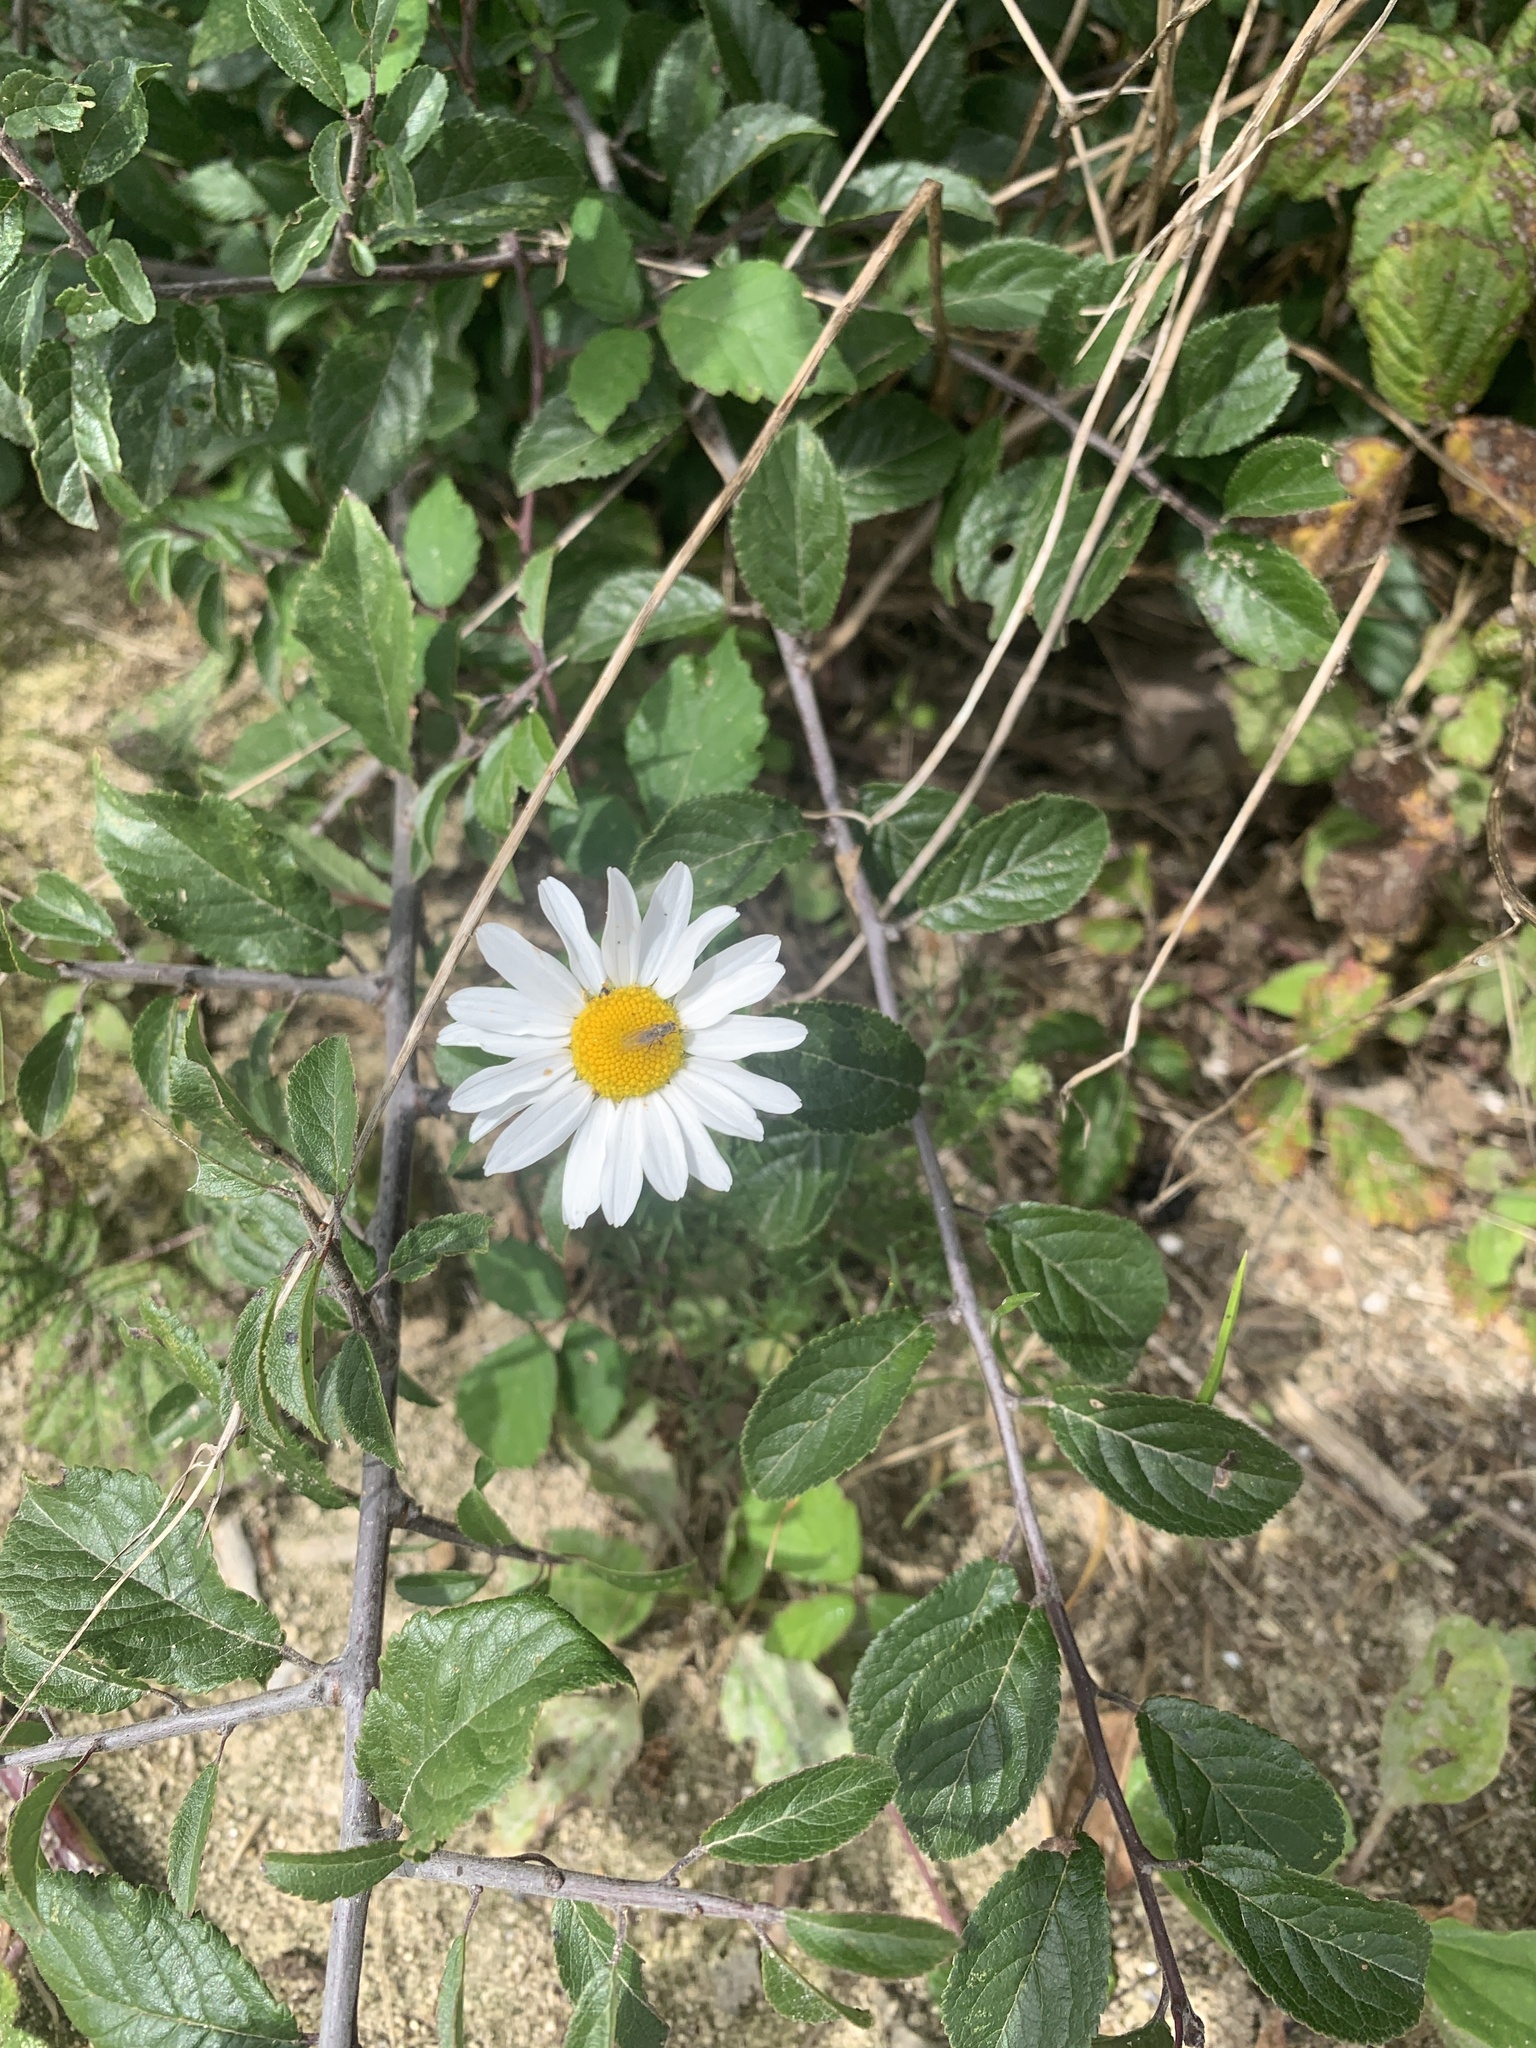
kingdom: Plantae
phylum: Tracheophyta
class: Magnoliopsida
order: Asterales
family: Asteraceae
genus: Leucanthemum
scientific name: Leucanthemum vulgare
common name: Oxeye daisy
